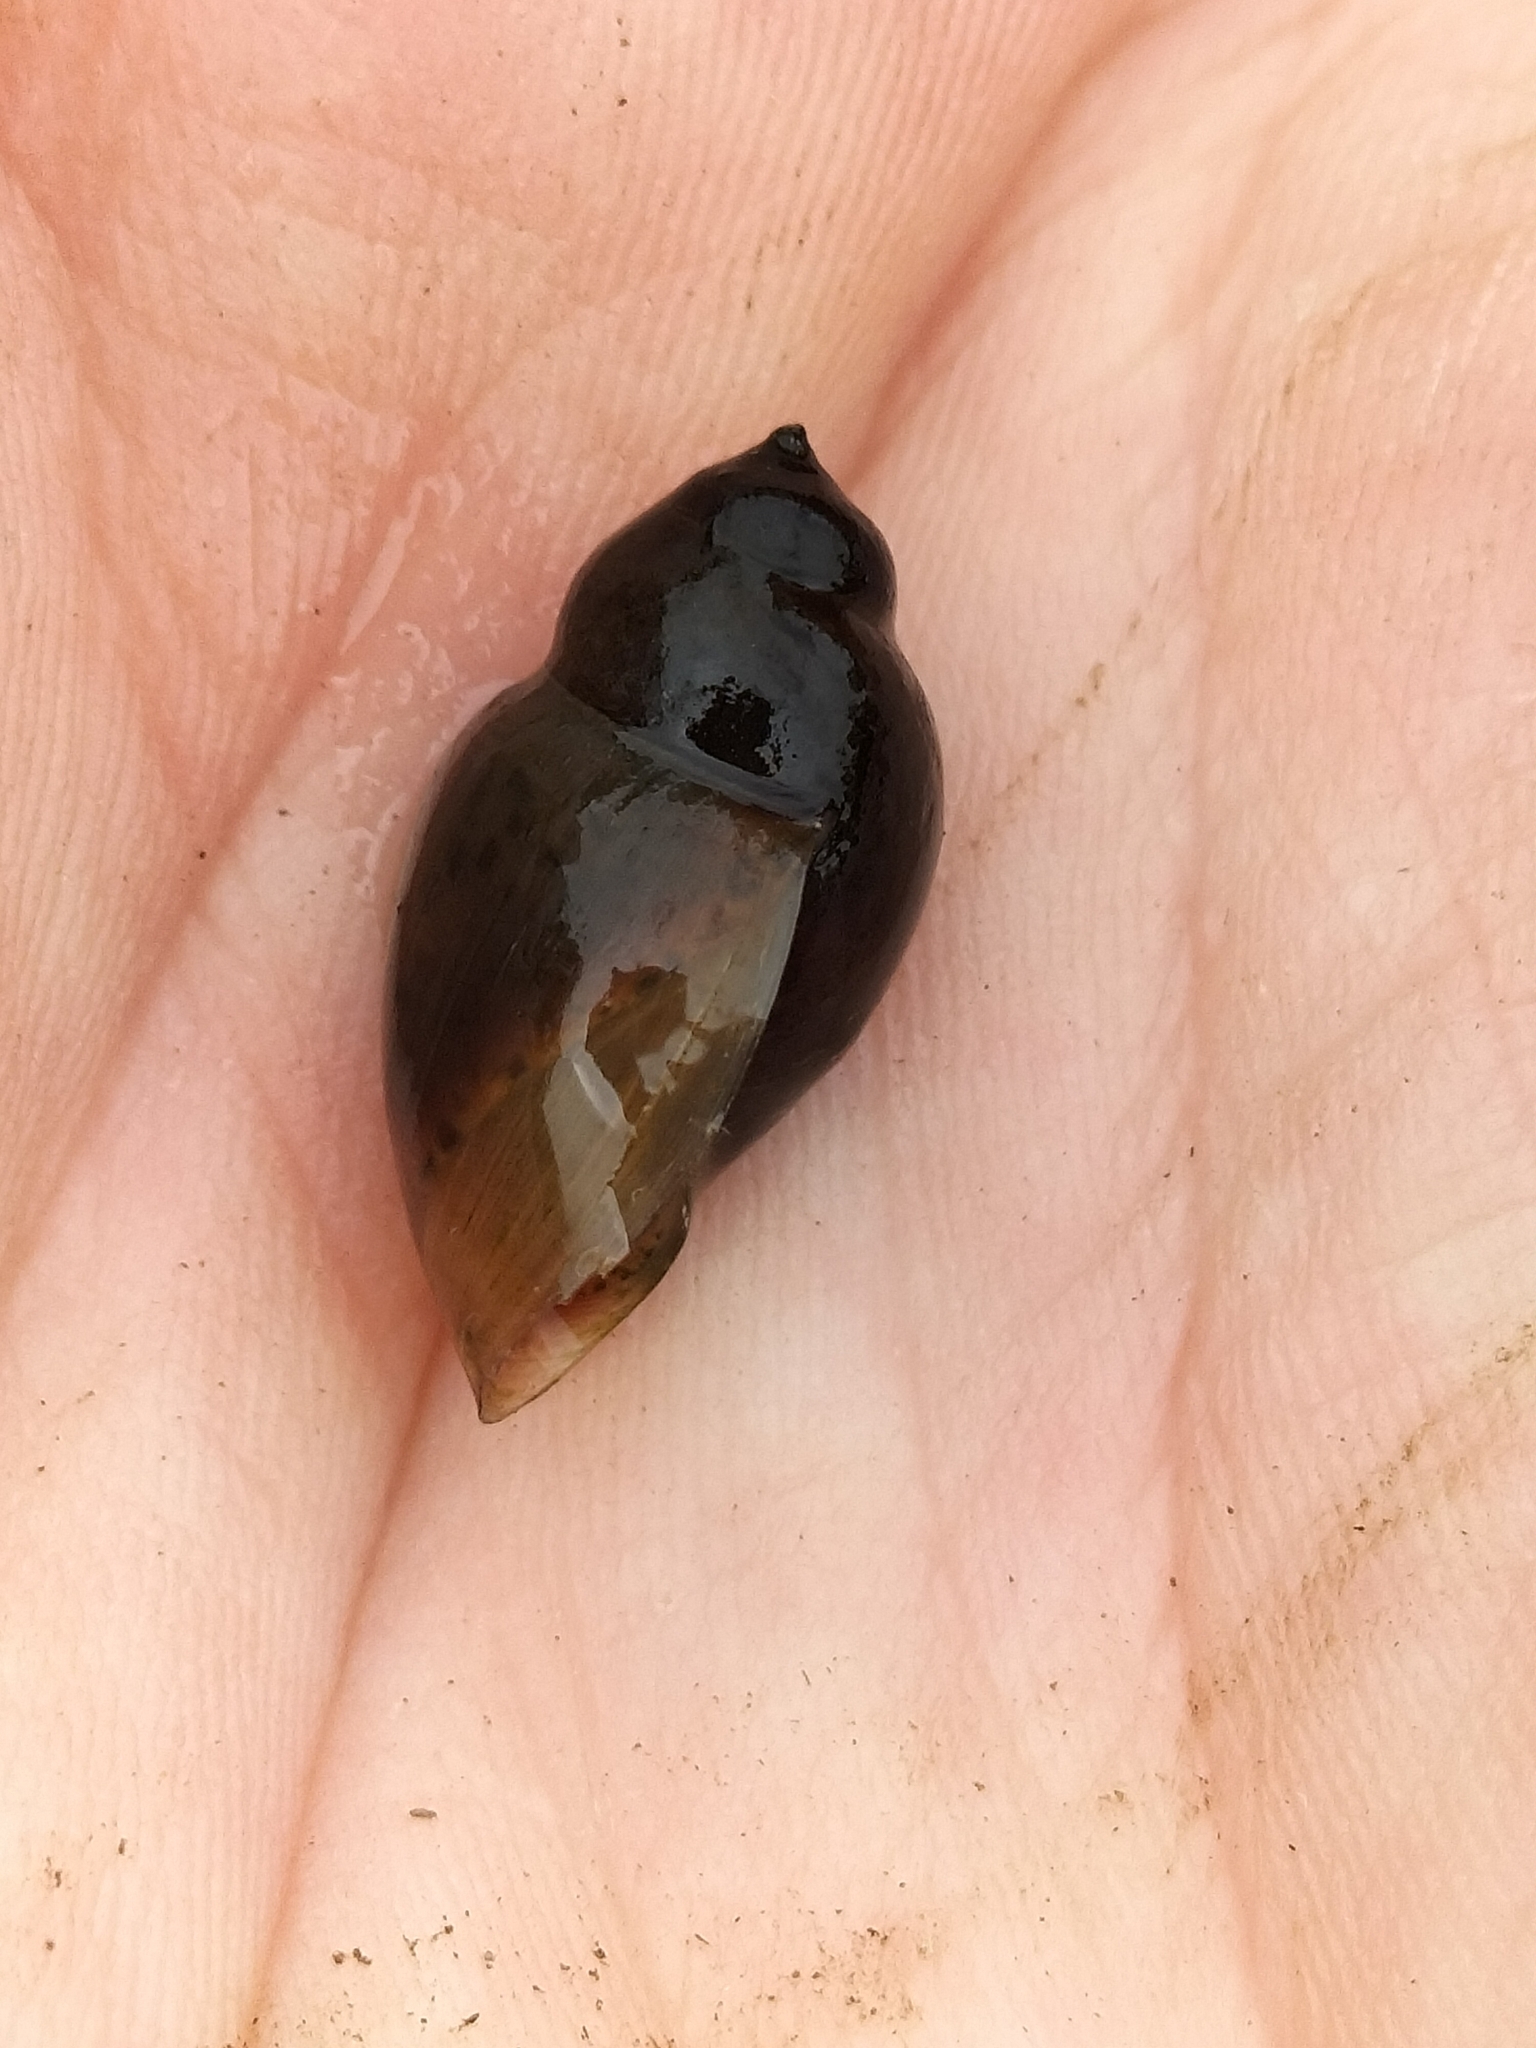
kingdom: Animalia
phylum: Mollusca
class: Gastropoda
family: Planorbidae
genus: Glyptophysa
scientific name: Glyptophysa novaehollandica
